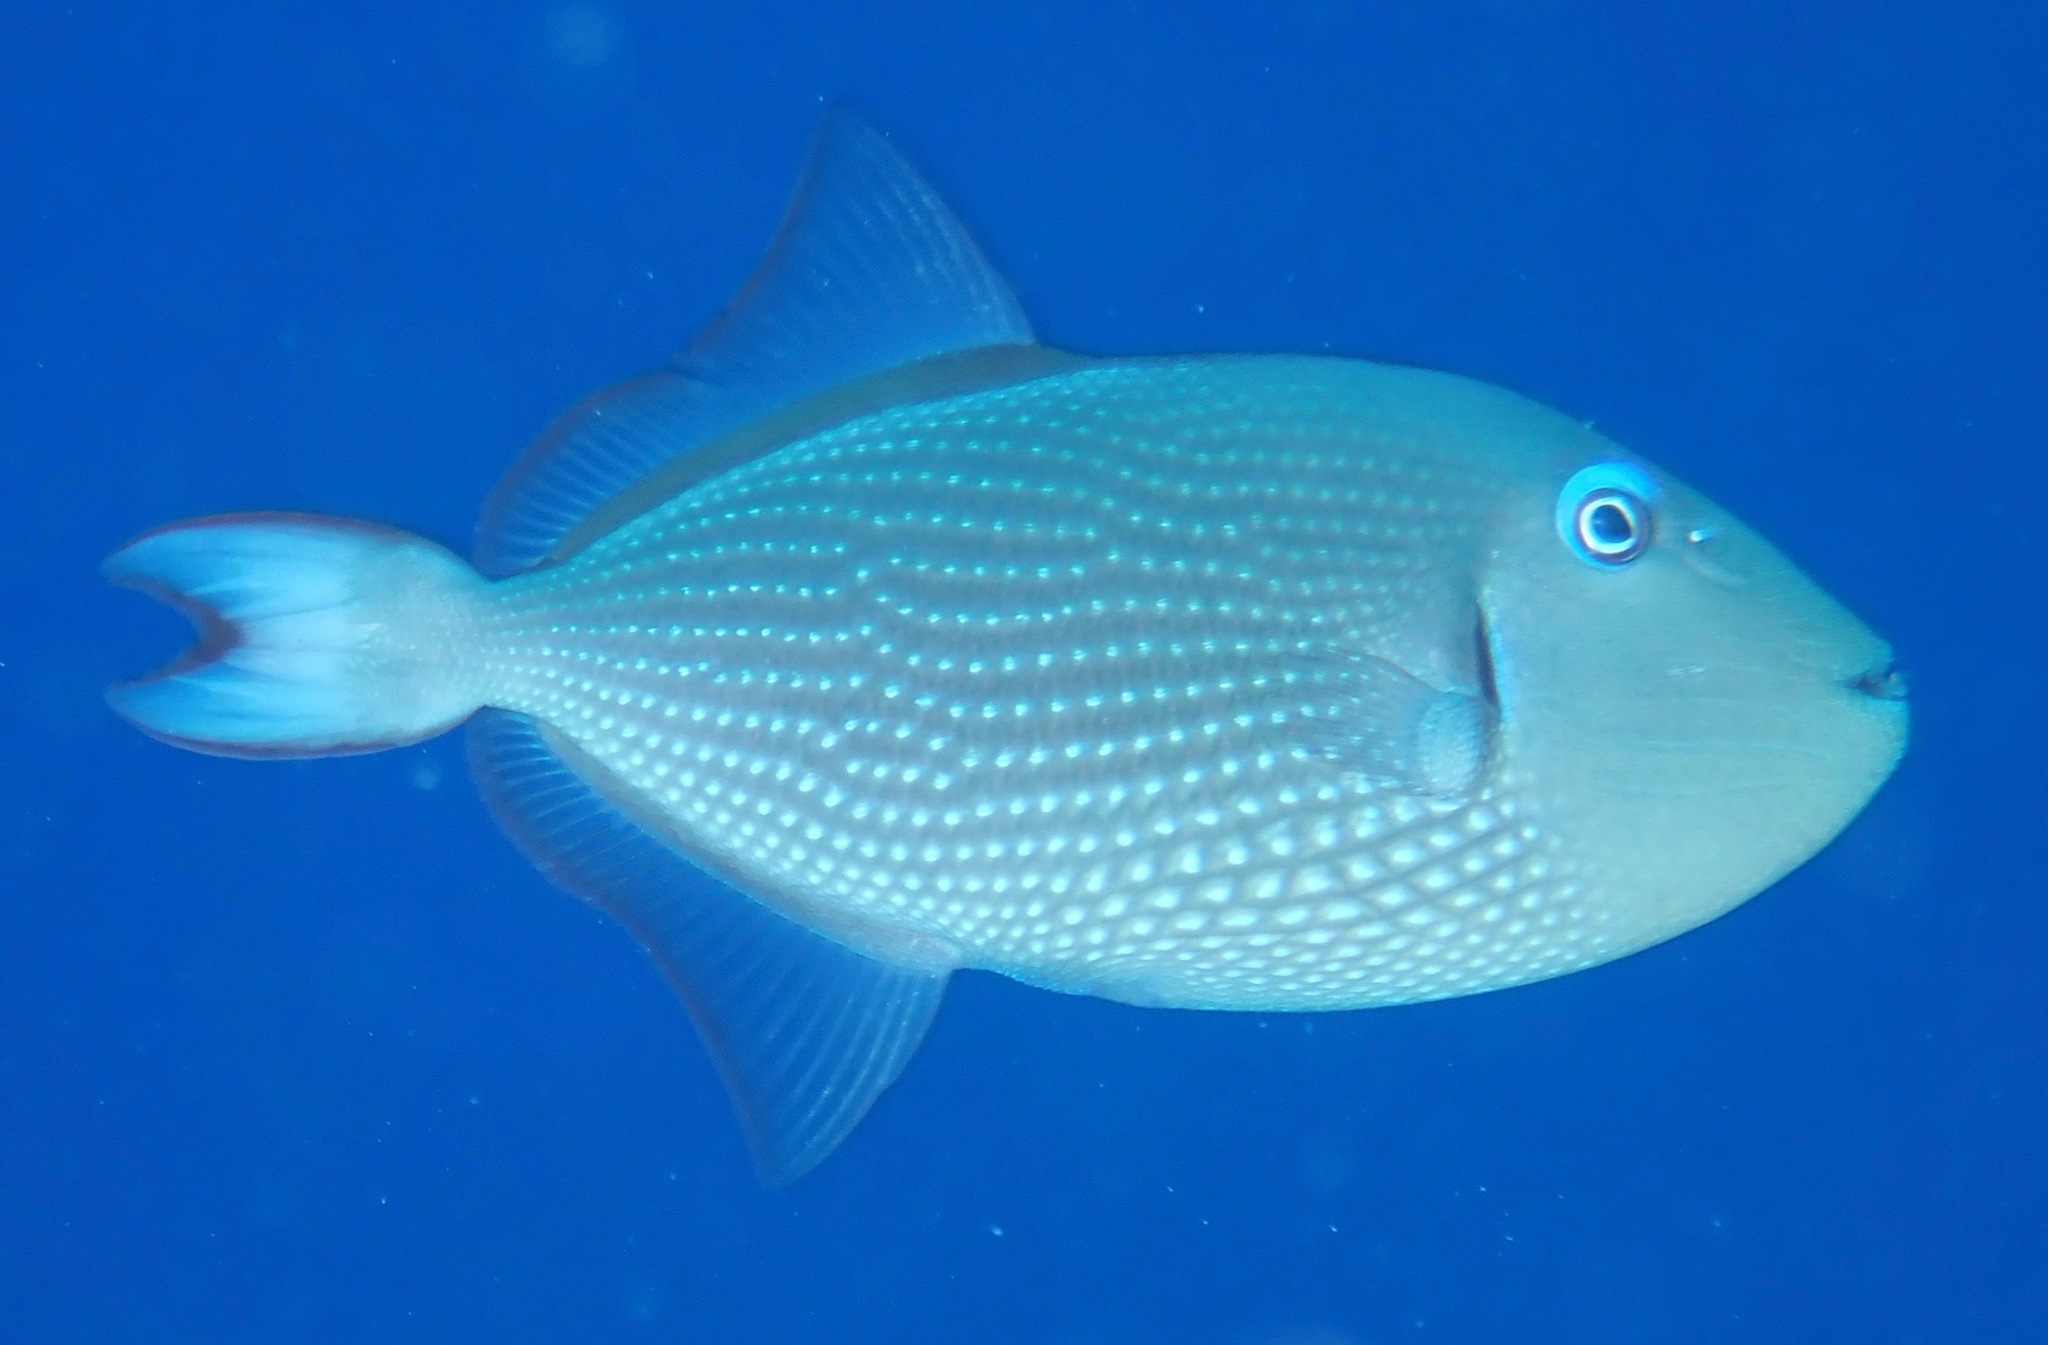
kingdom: Animalia
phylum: Chordata
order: Tetraodontiformes
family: Balistidae
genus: Xanthichthys
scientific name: Xanthichthys auromarginatus
